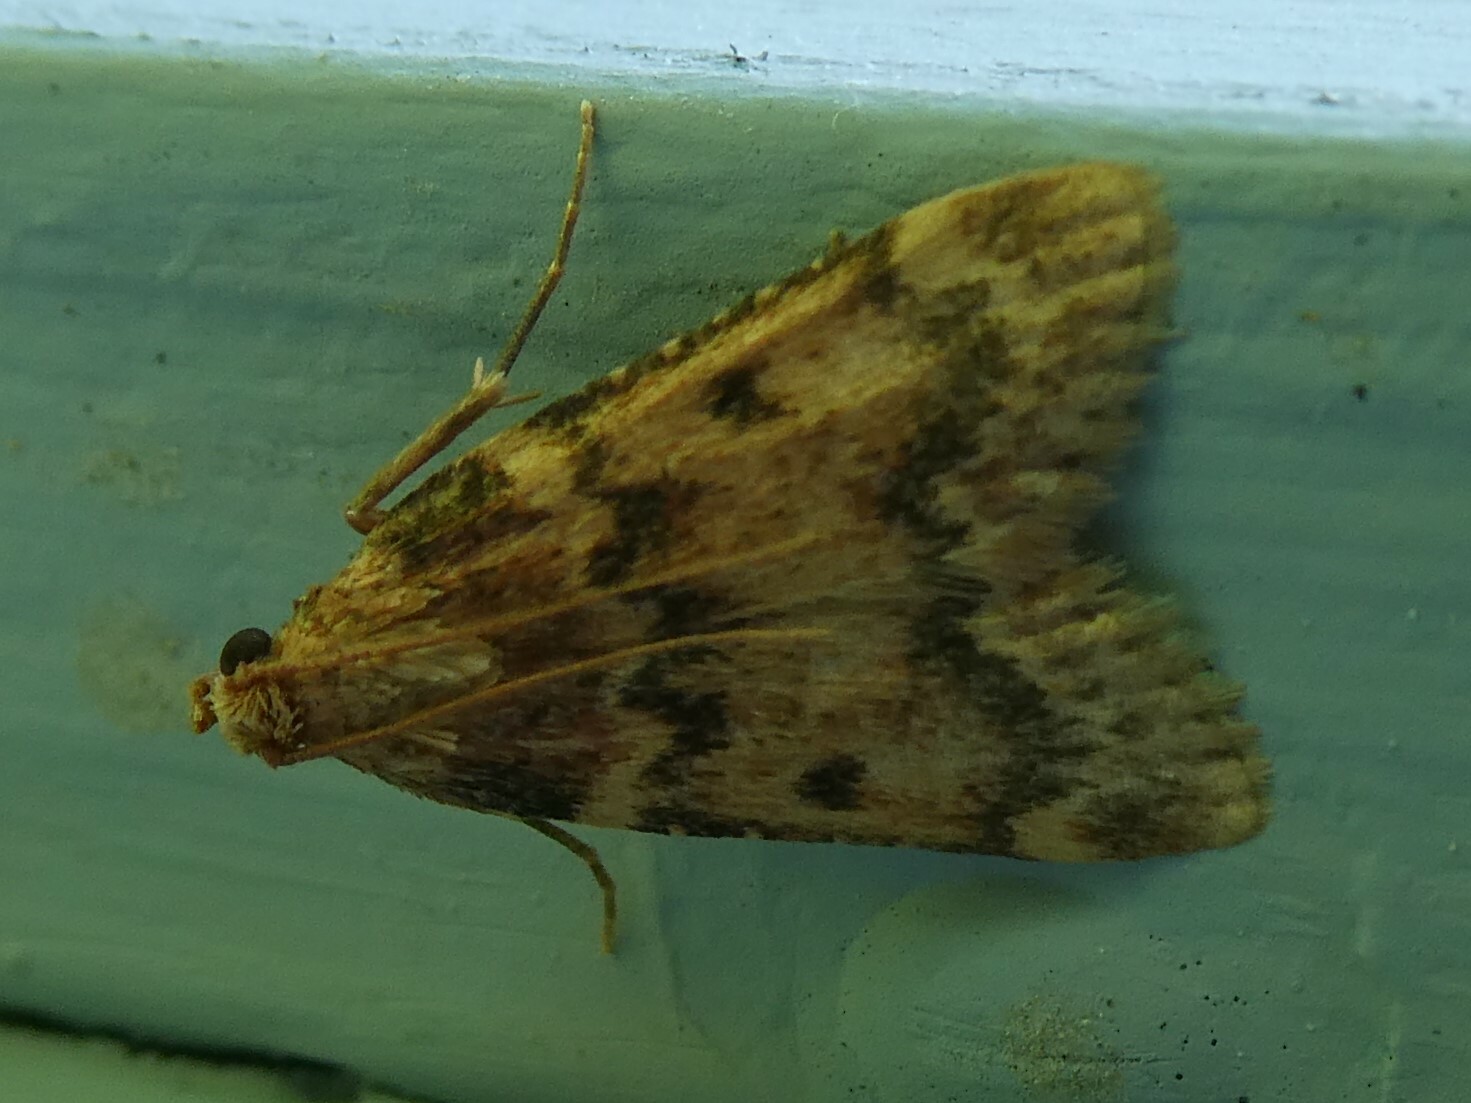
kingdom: Animalia
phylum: Arthropoda
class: Insecta
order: Lepidoptera
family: Pyralidae
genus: Aglossa
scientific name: Aglossa disciferalis
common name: Pink-masked pyralid moth
